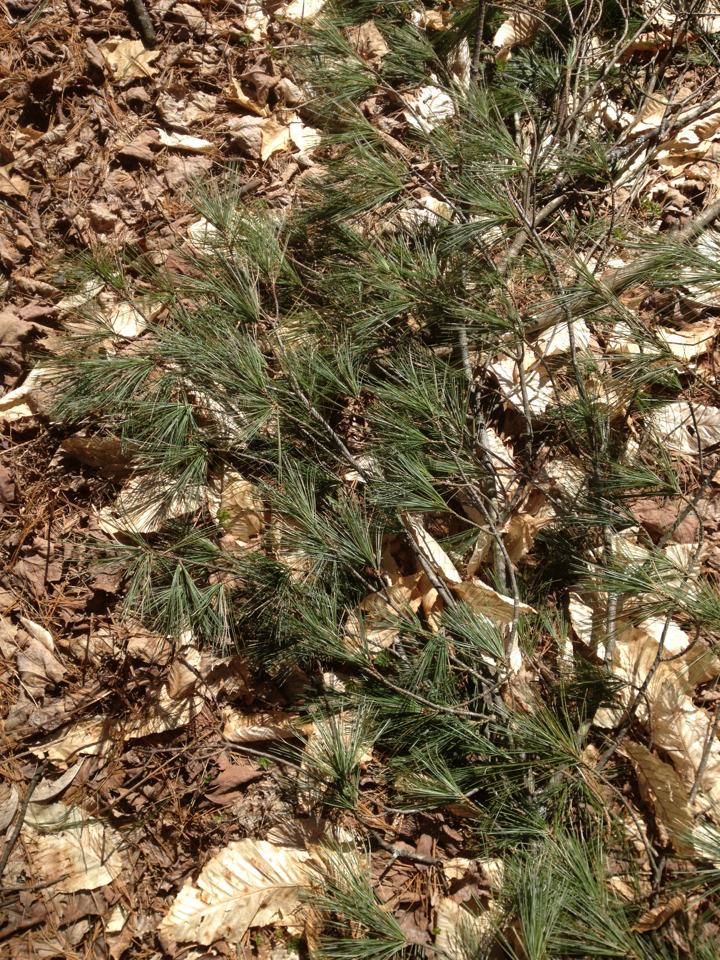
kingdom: Plantae
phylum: Tracheophyta
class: Pinopsida
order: Pinales
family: Pinaceae
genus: Pinus
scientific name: Pinus strobus
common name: Weymouth pine
